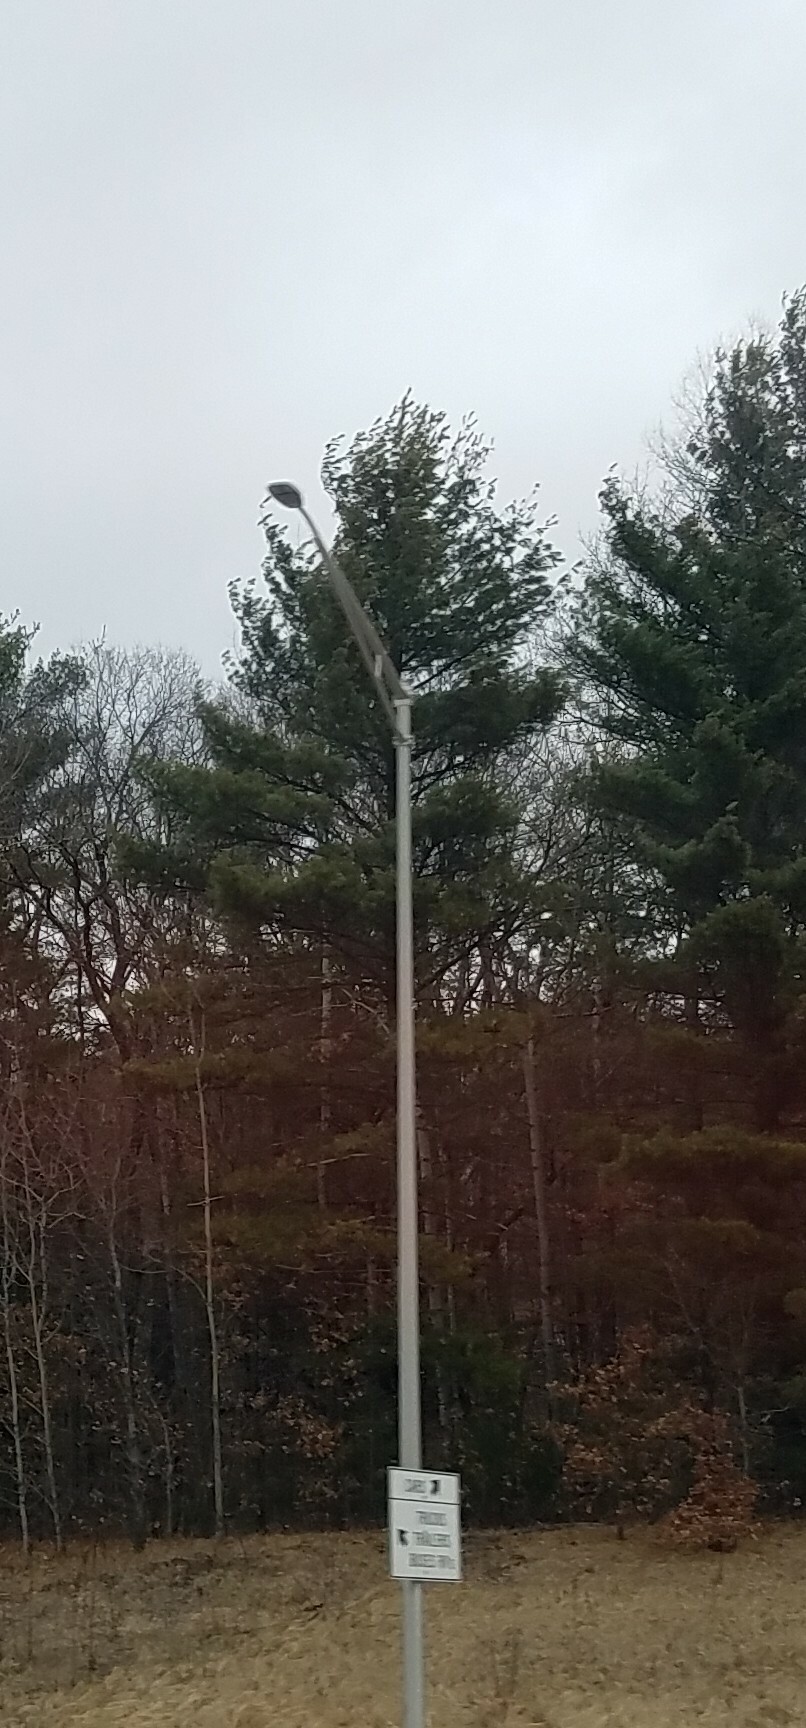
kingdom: Plantae
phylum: Tracheophyta
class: Pinopsida
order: Pinales
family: Pinaceae
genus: Pinus
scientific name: Pinus strobus
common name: Weymouth pine
